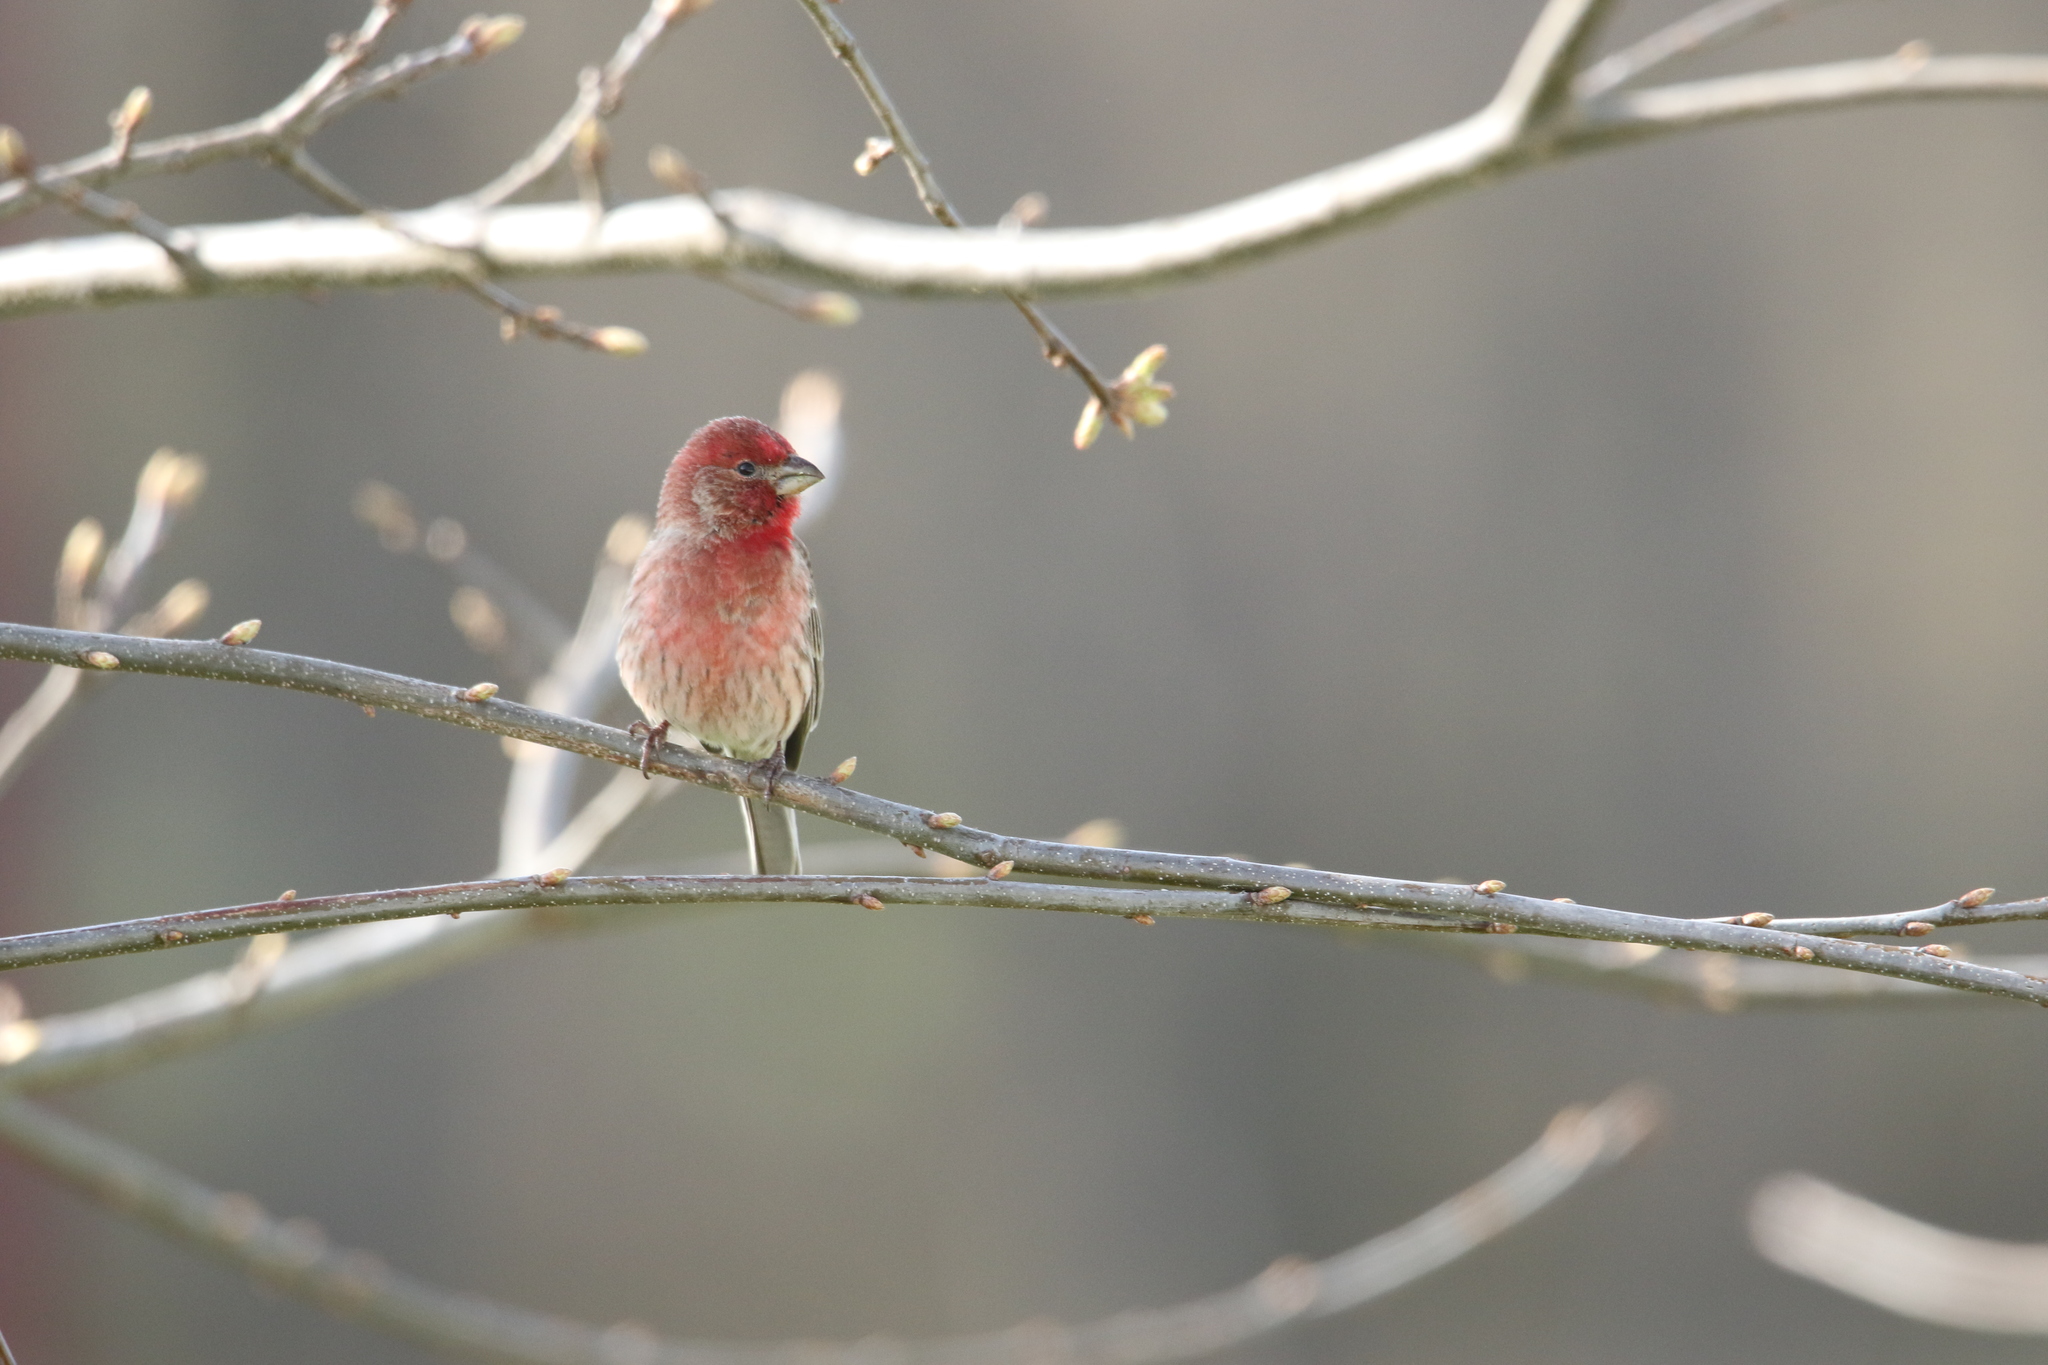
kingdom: Animalia
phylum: Chordata
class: Aves
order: Passeriformes
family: Fringillidae
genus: Haemorhous
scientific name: Haemorhous mexicanus
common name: House finch
